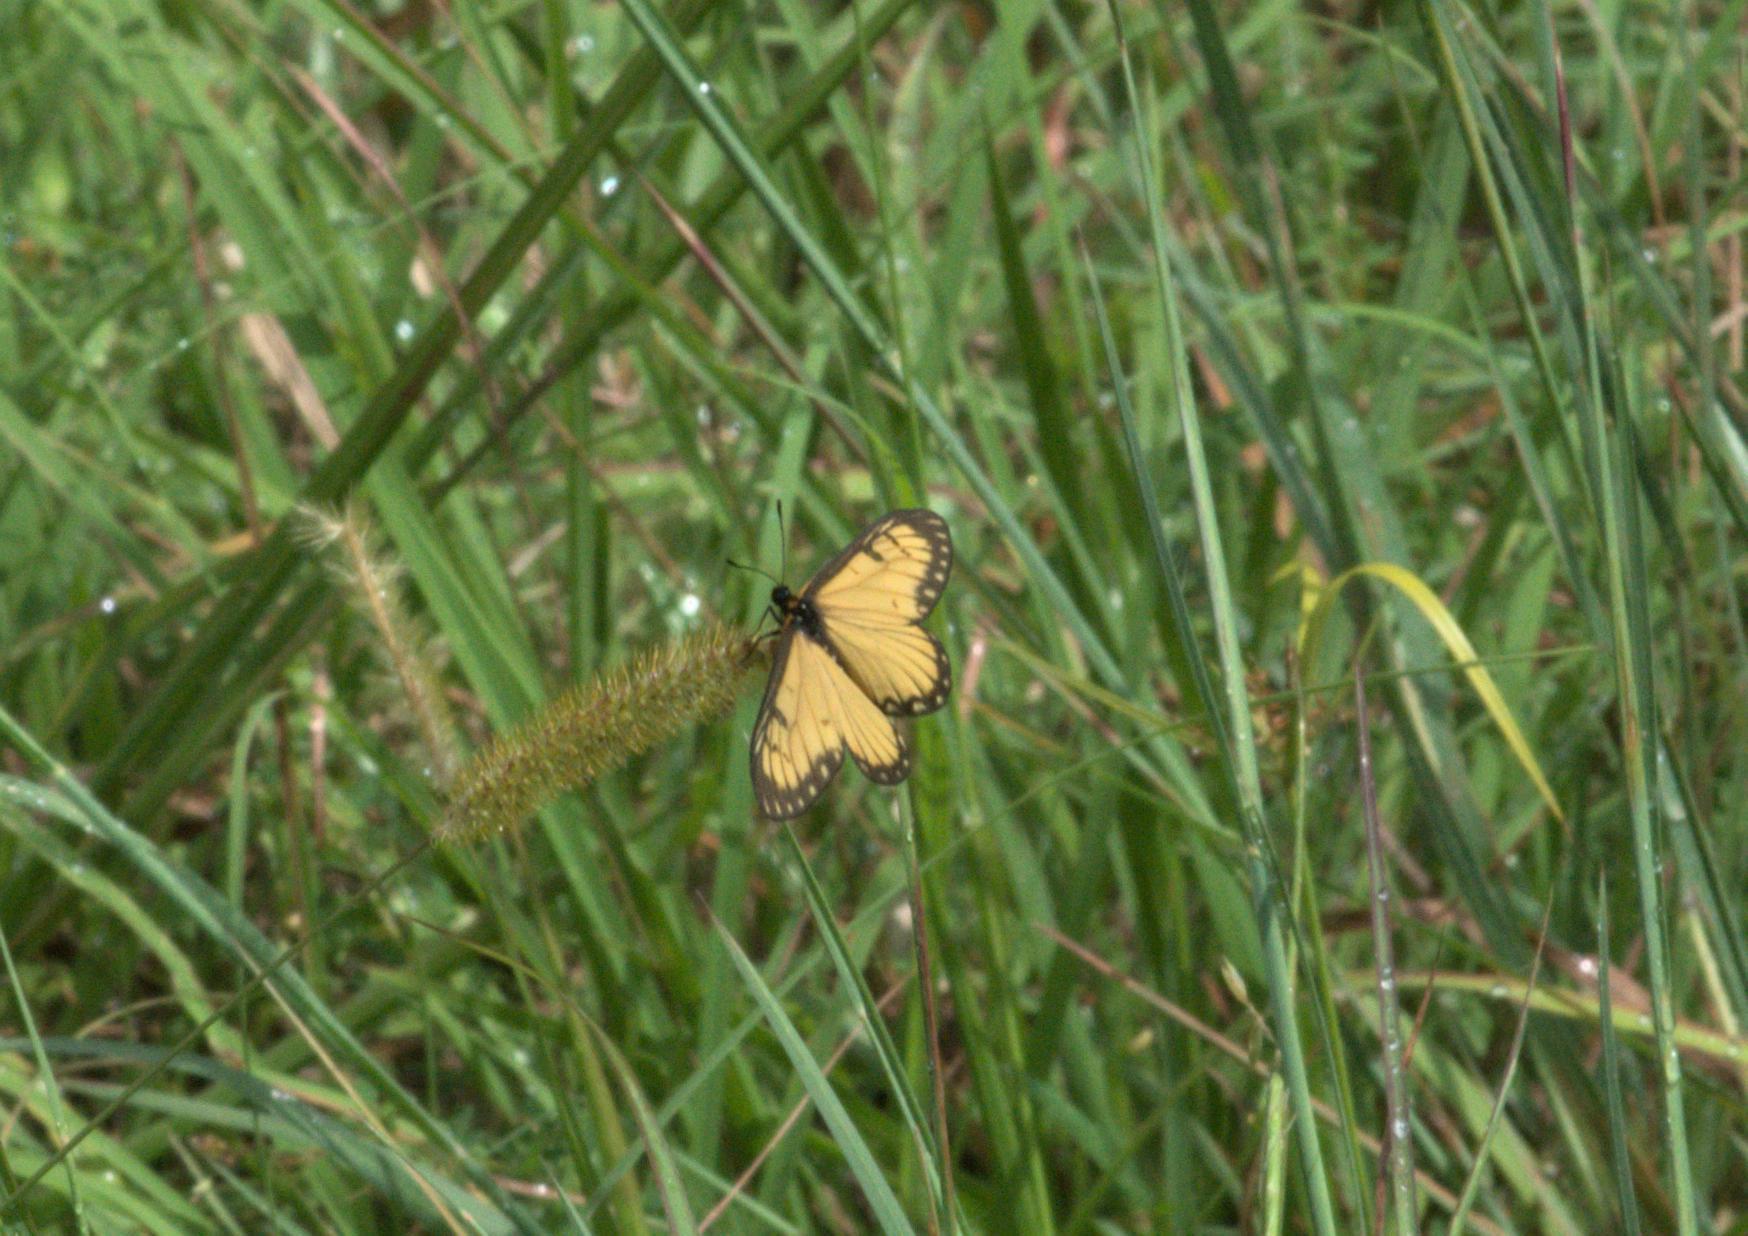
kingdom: Animalia
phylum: Arthropoda
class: Insecta
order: Lepidoptera
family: Nymphalidae
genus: Acraea
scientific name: Acraea Telchinia issoria
